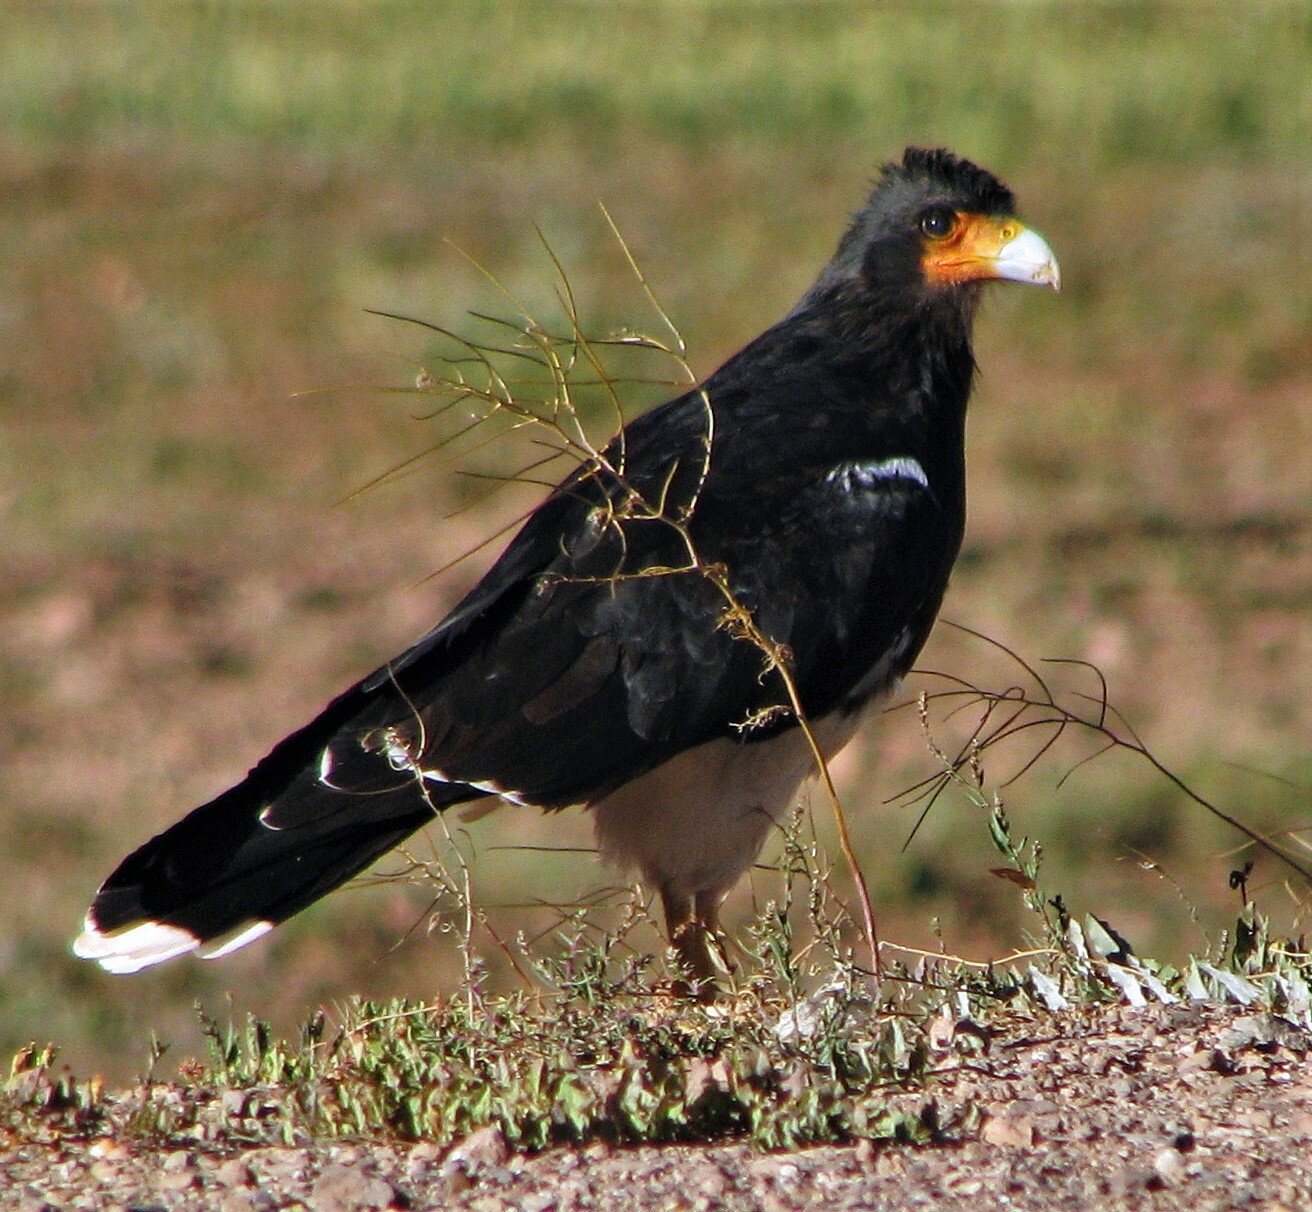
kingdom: Animalia
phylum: Chordata
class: Aves
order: Falconiformes
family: Falconidae
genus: Daptrius
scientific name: Daptrius
